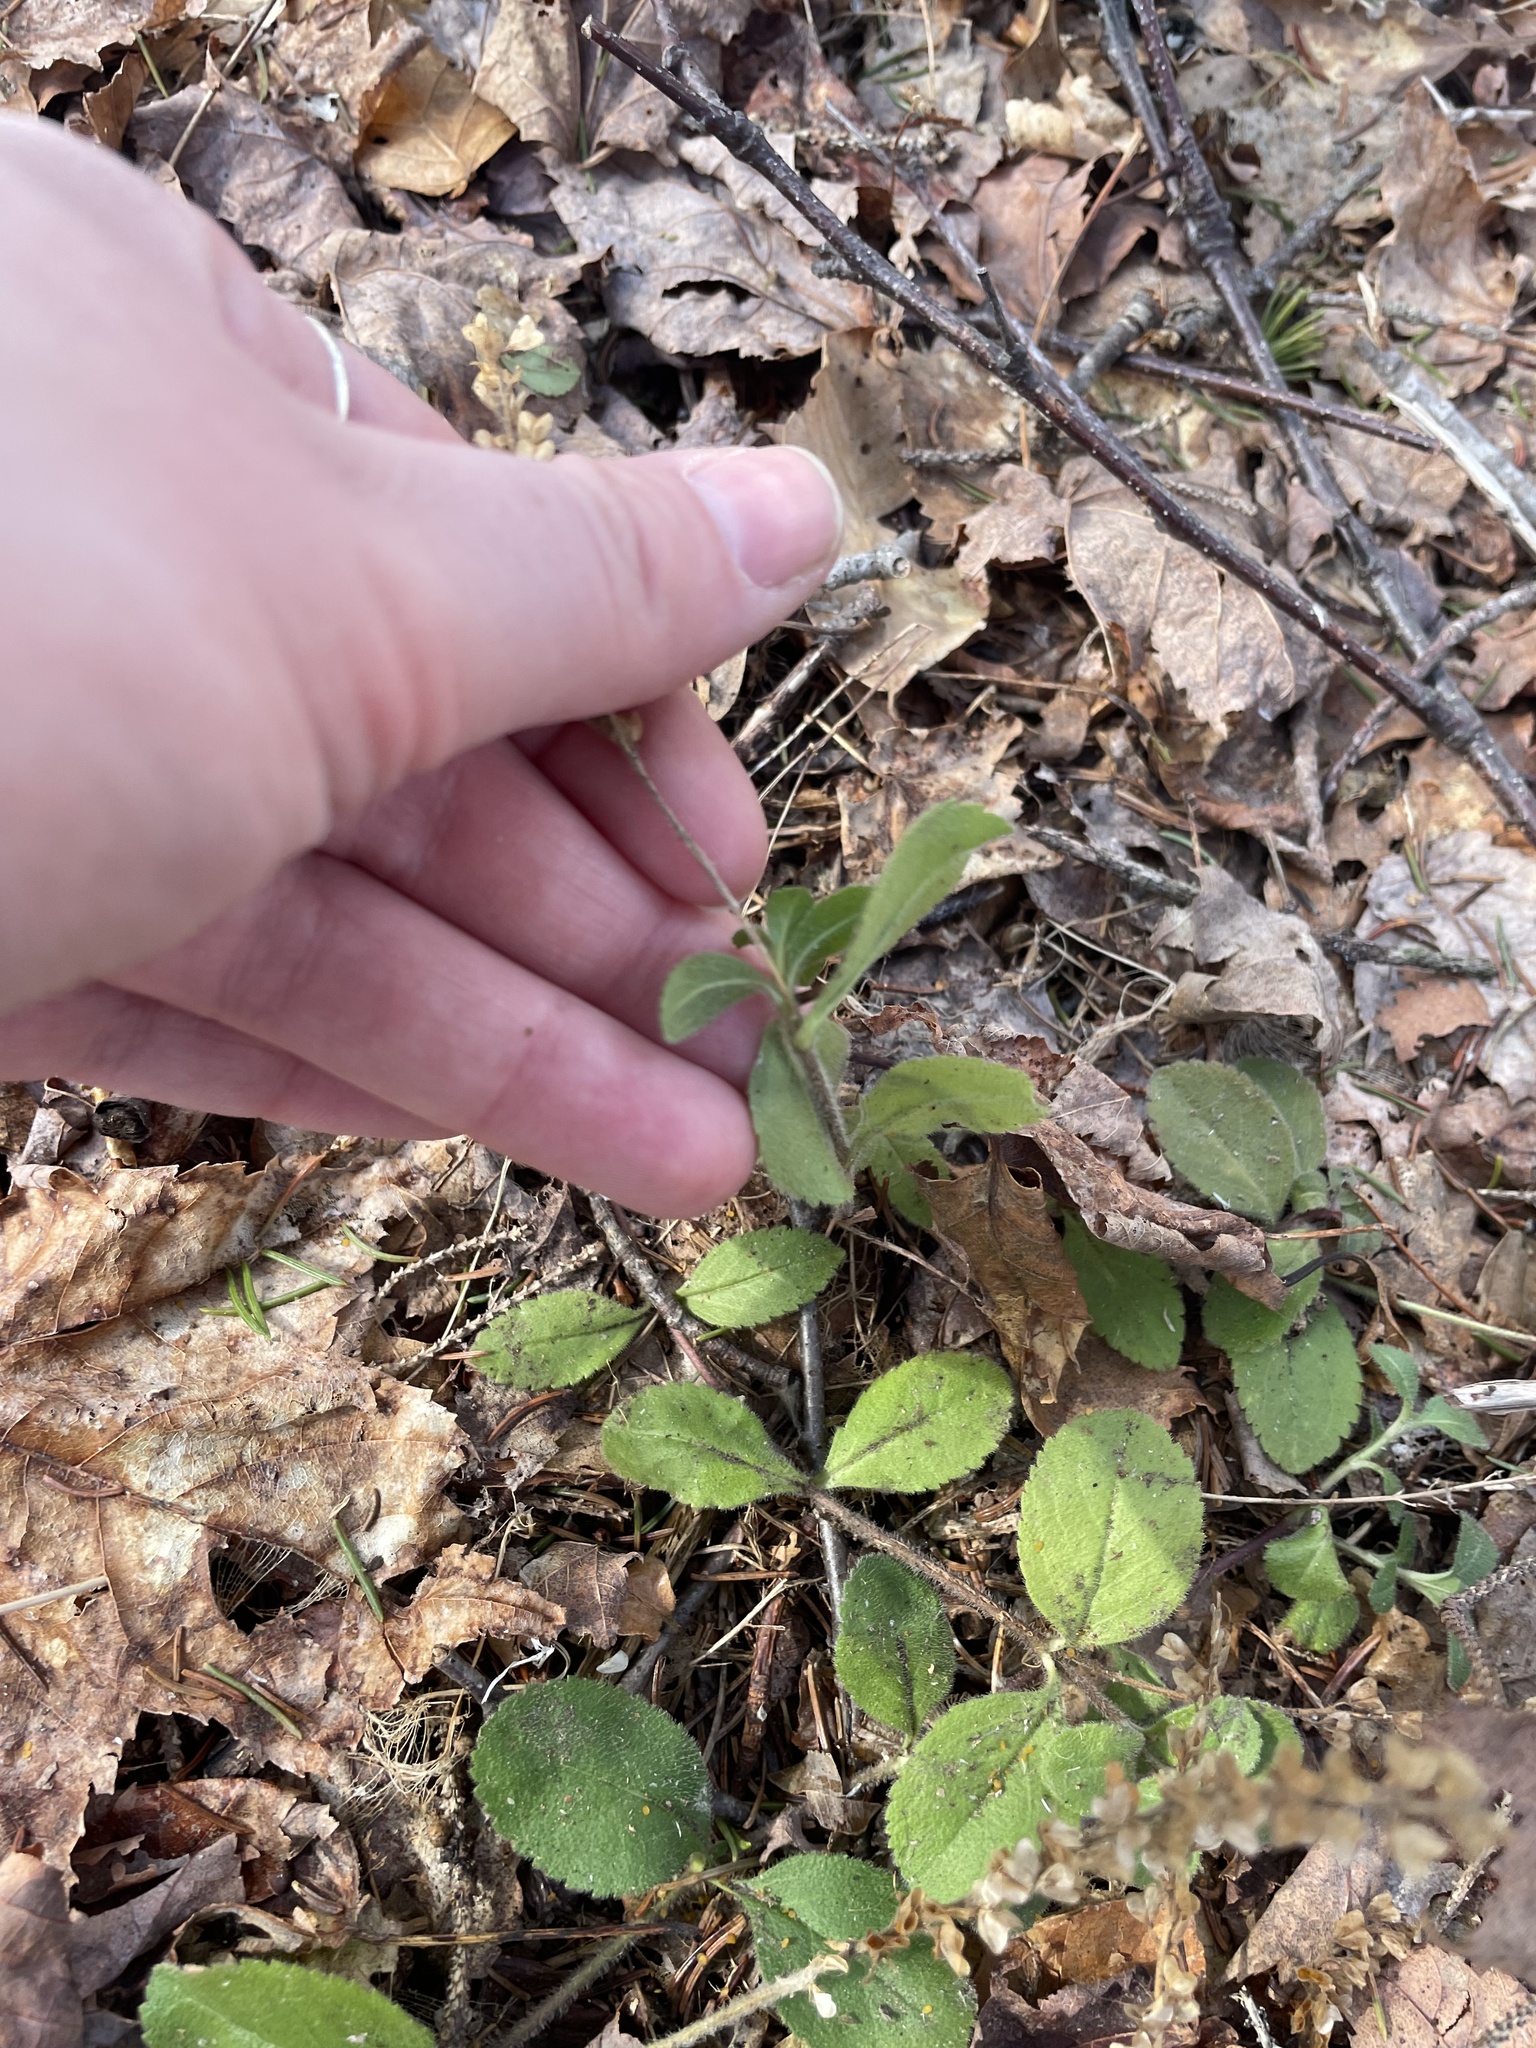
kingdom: Plantae
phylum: Tracheophyta
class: Magnoliopsida
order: Lamiales
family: Plantaginaceae
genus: Veronica
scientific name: Veronica officinalis
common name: Common speedwell
